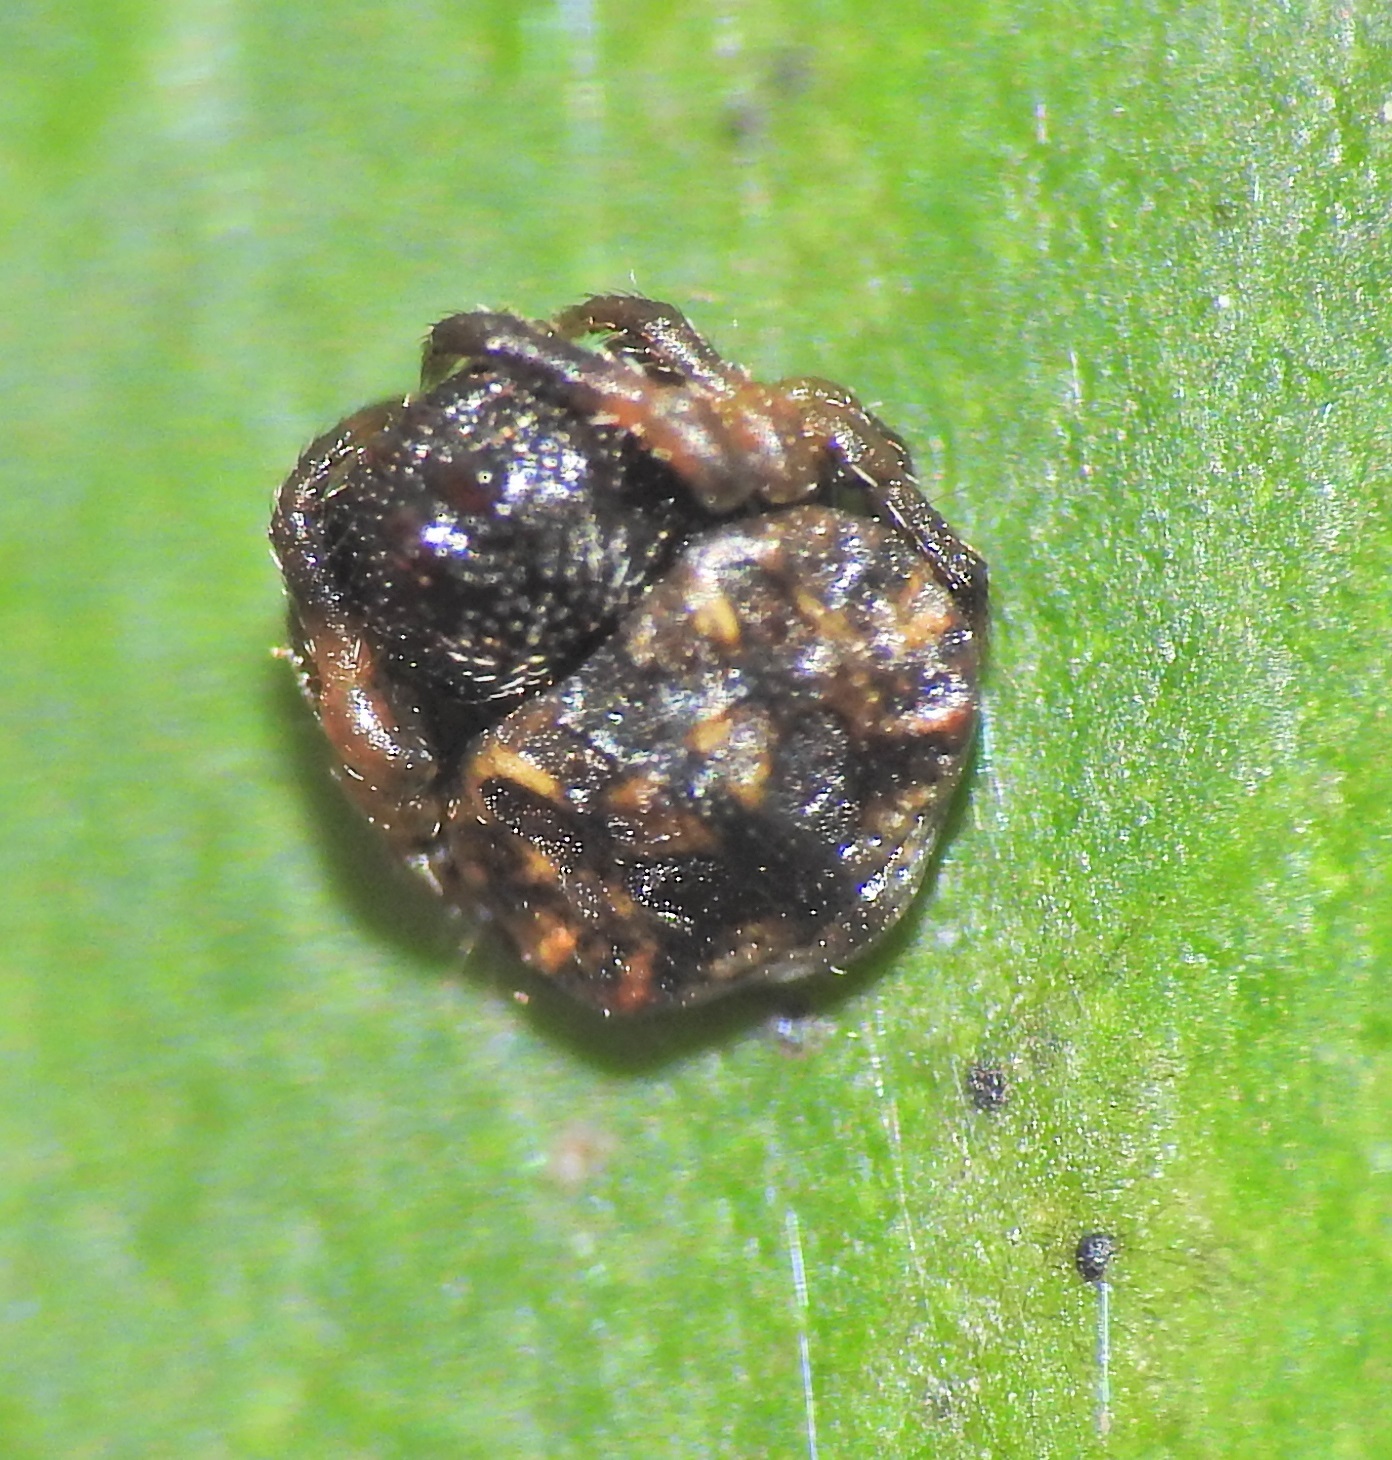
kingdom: Animalia
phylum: Arthropoda
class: Arachnida
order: Araneae
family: Arkyidae
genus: Arkys
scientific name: Arkys curtulus
